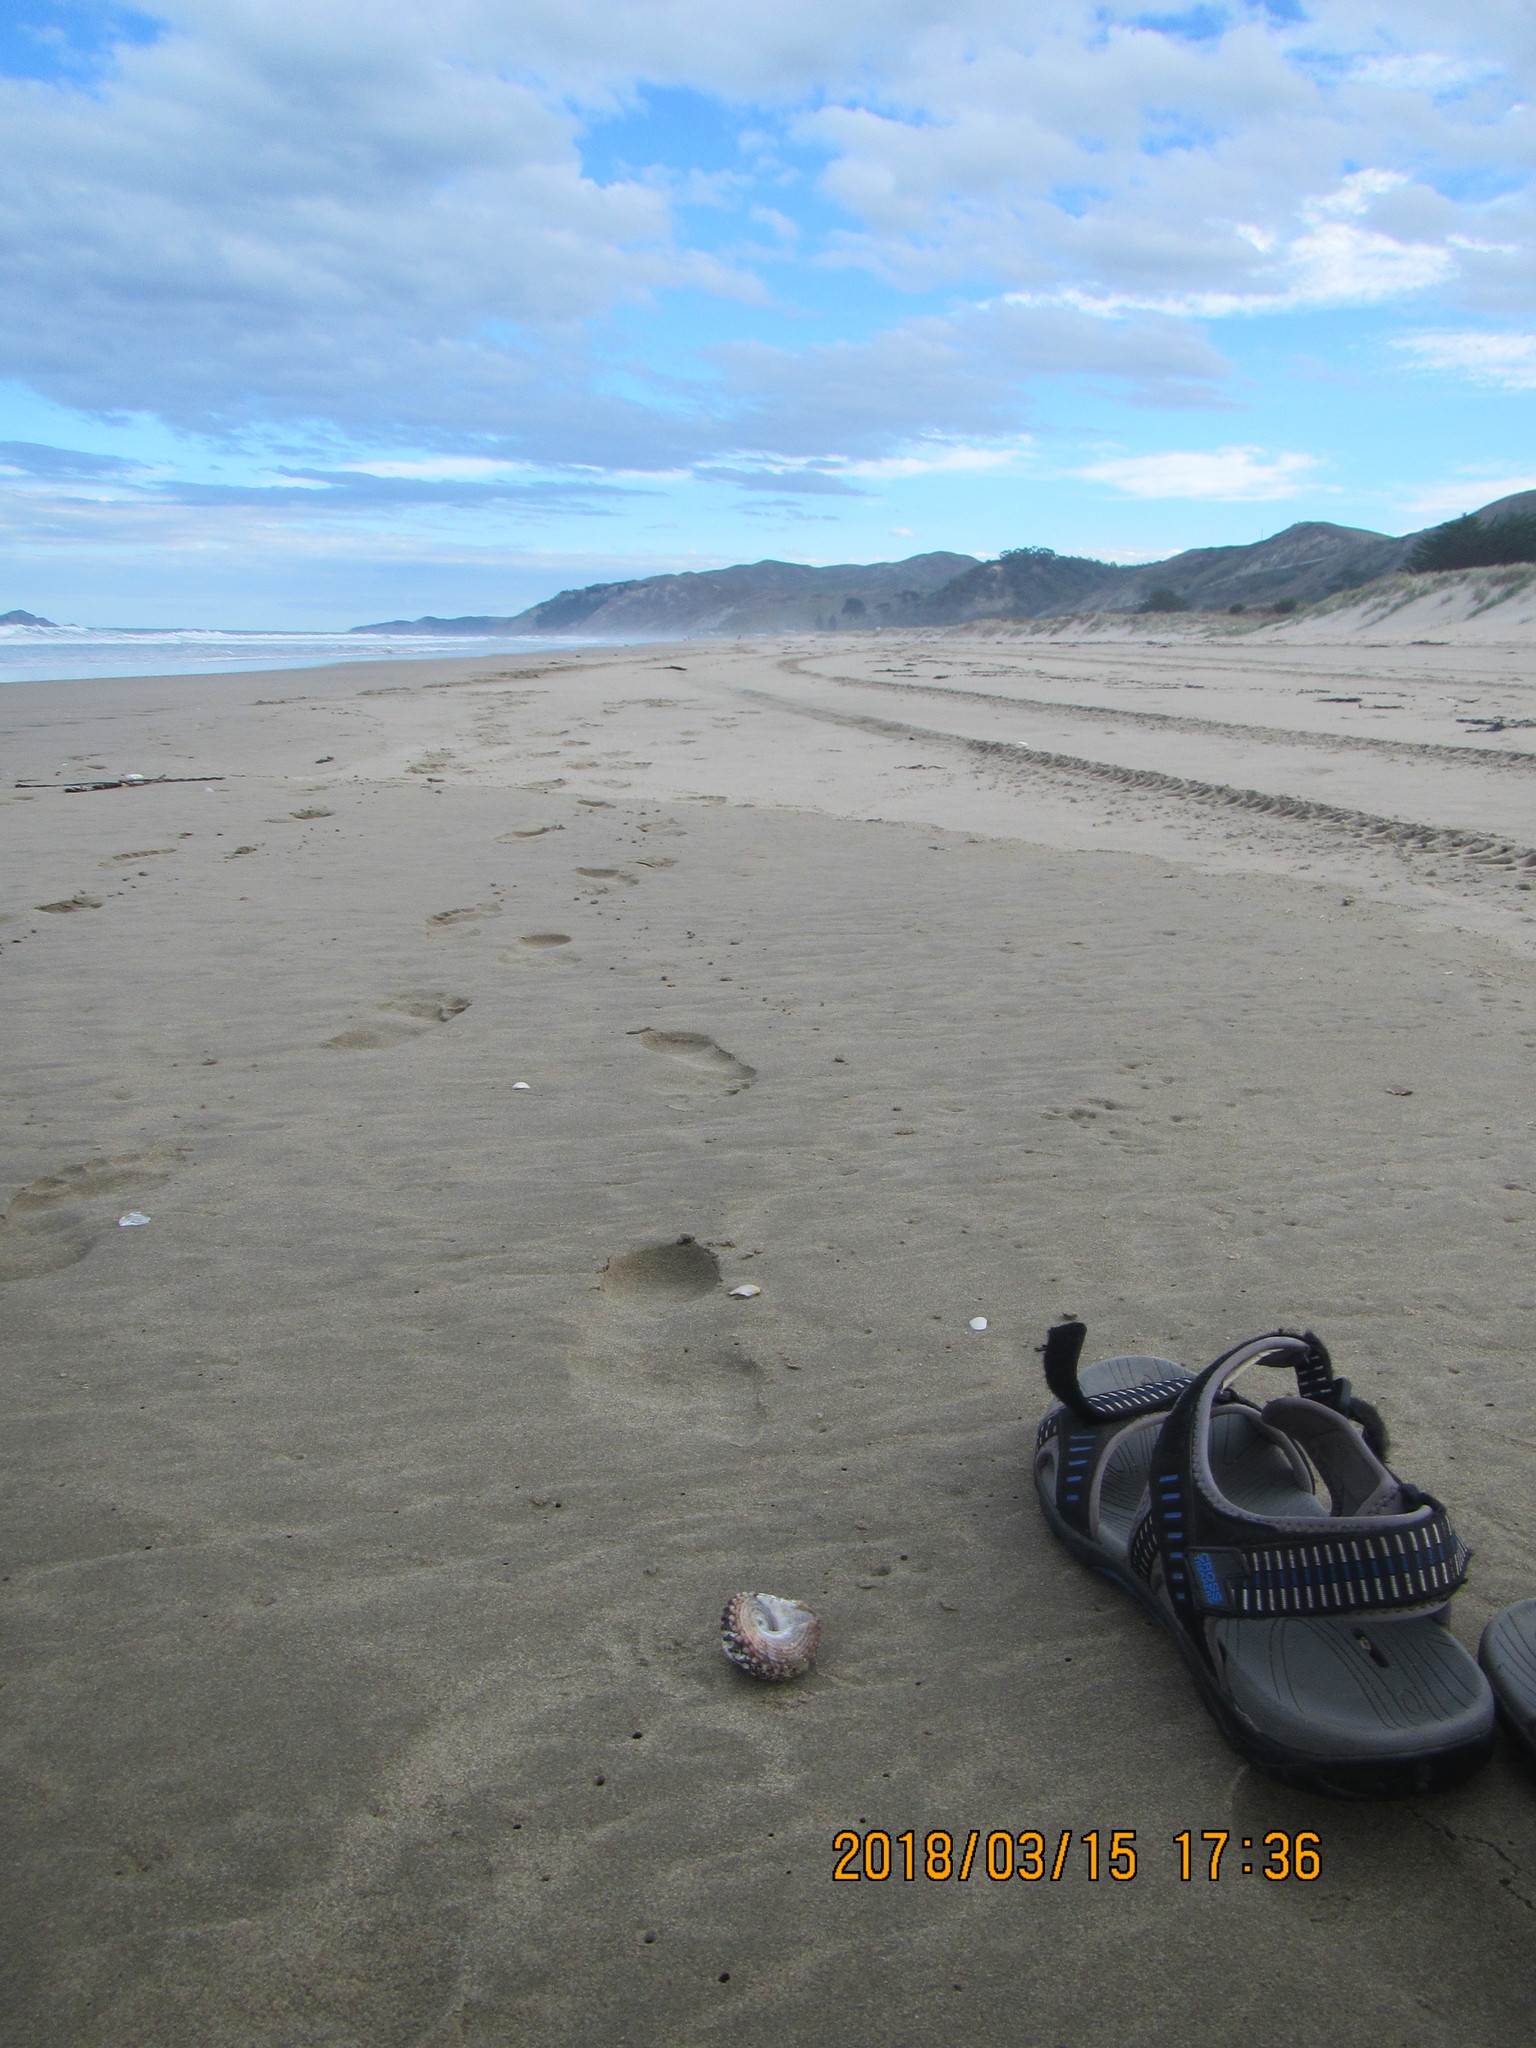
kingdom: Animalia
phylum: Mollusca
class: Gastropoda
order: Trochida
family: Turbinidae
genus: Cookia
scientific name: Cookia sulcata
